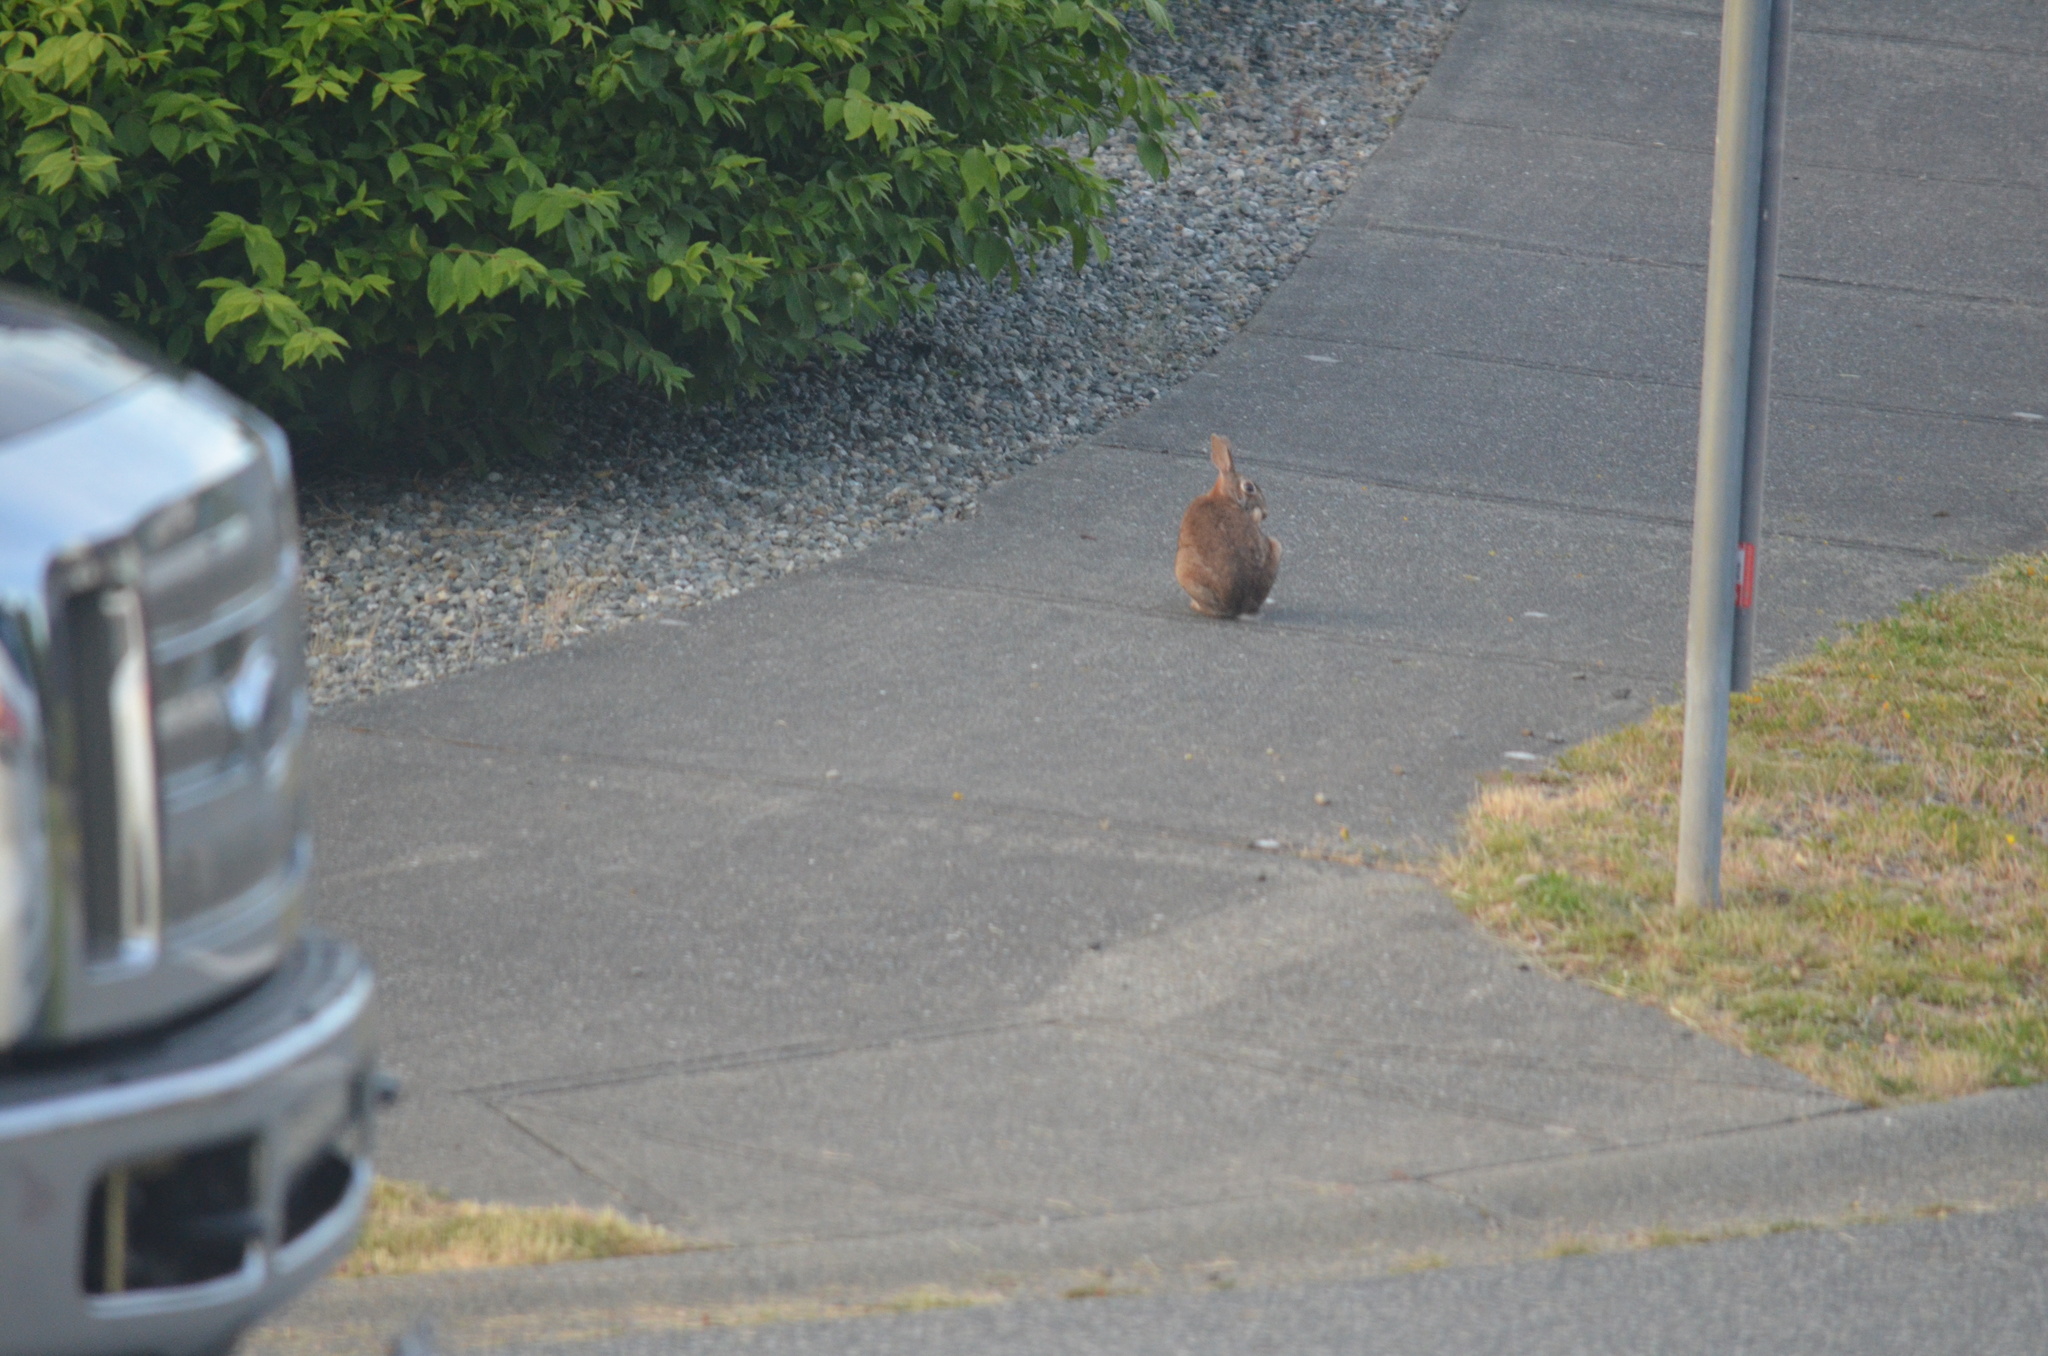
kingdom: Animalia
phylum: Chordata
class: Mammalia
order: Lagomorpha
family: Leporidae
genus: Sylvilagus
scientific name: Sylvilagus floridanus
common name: Eastern cottontail
